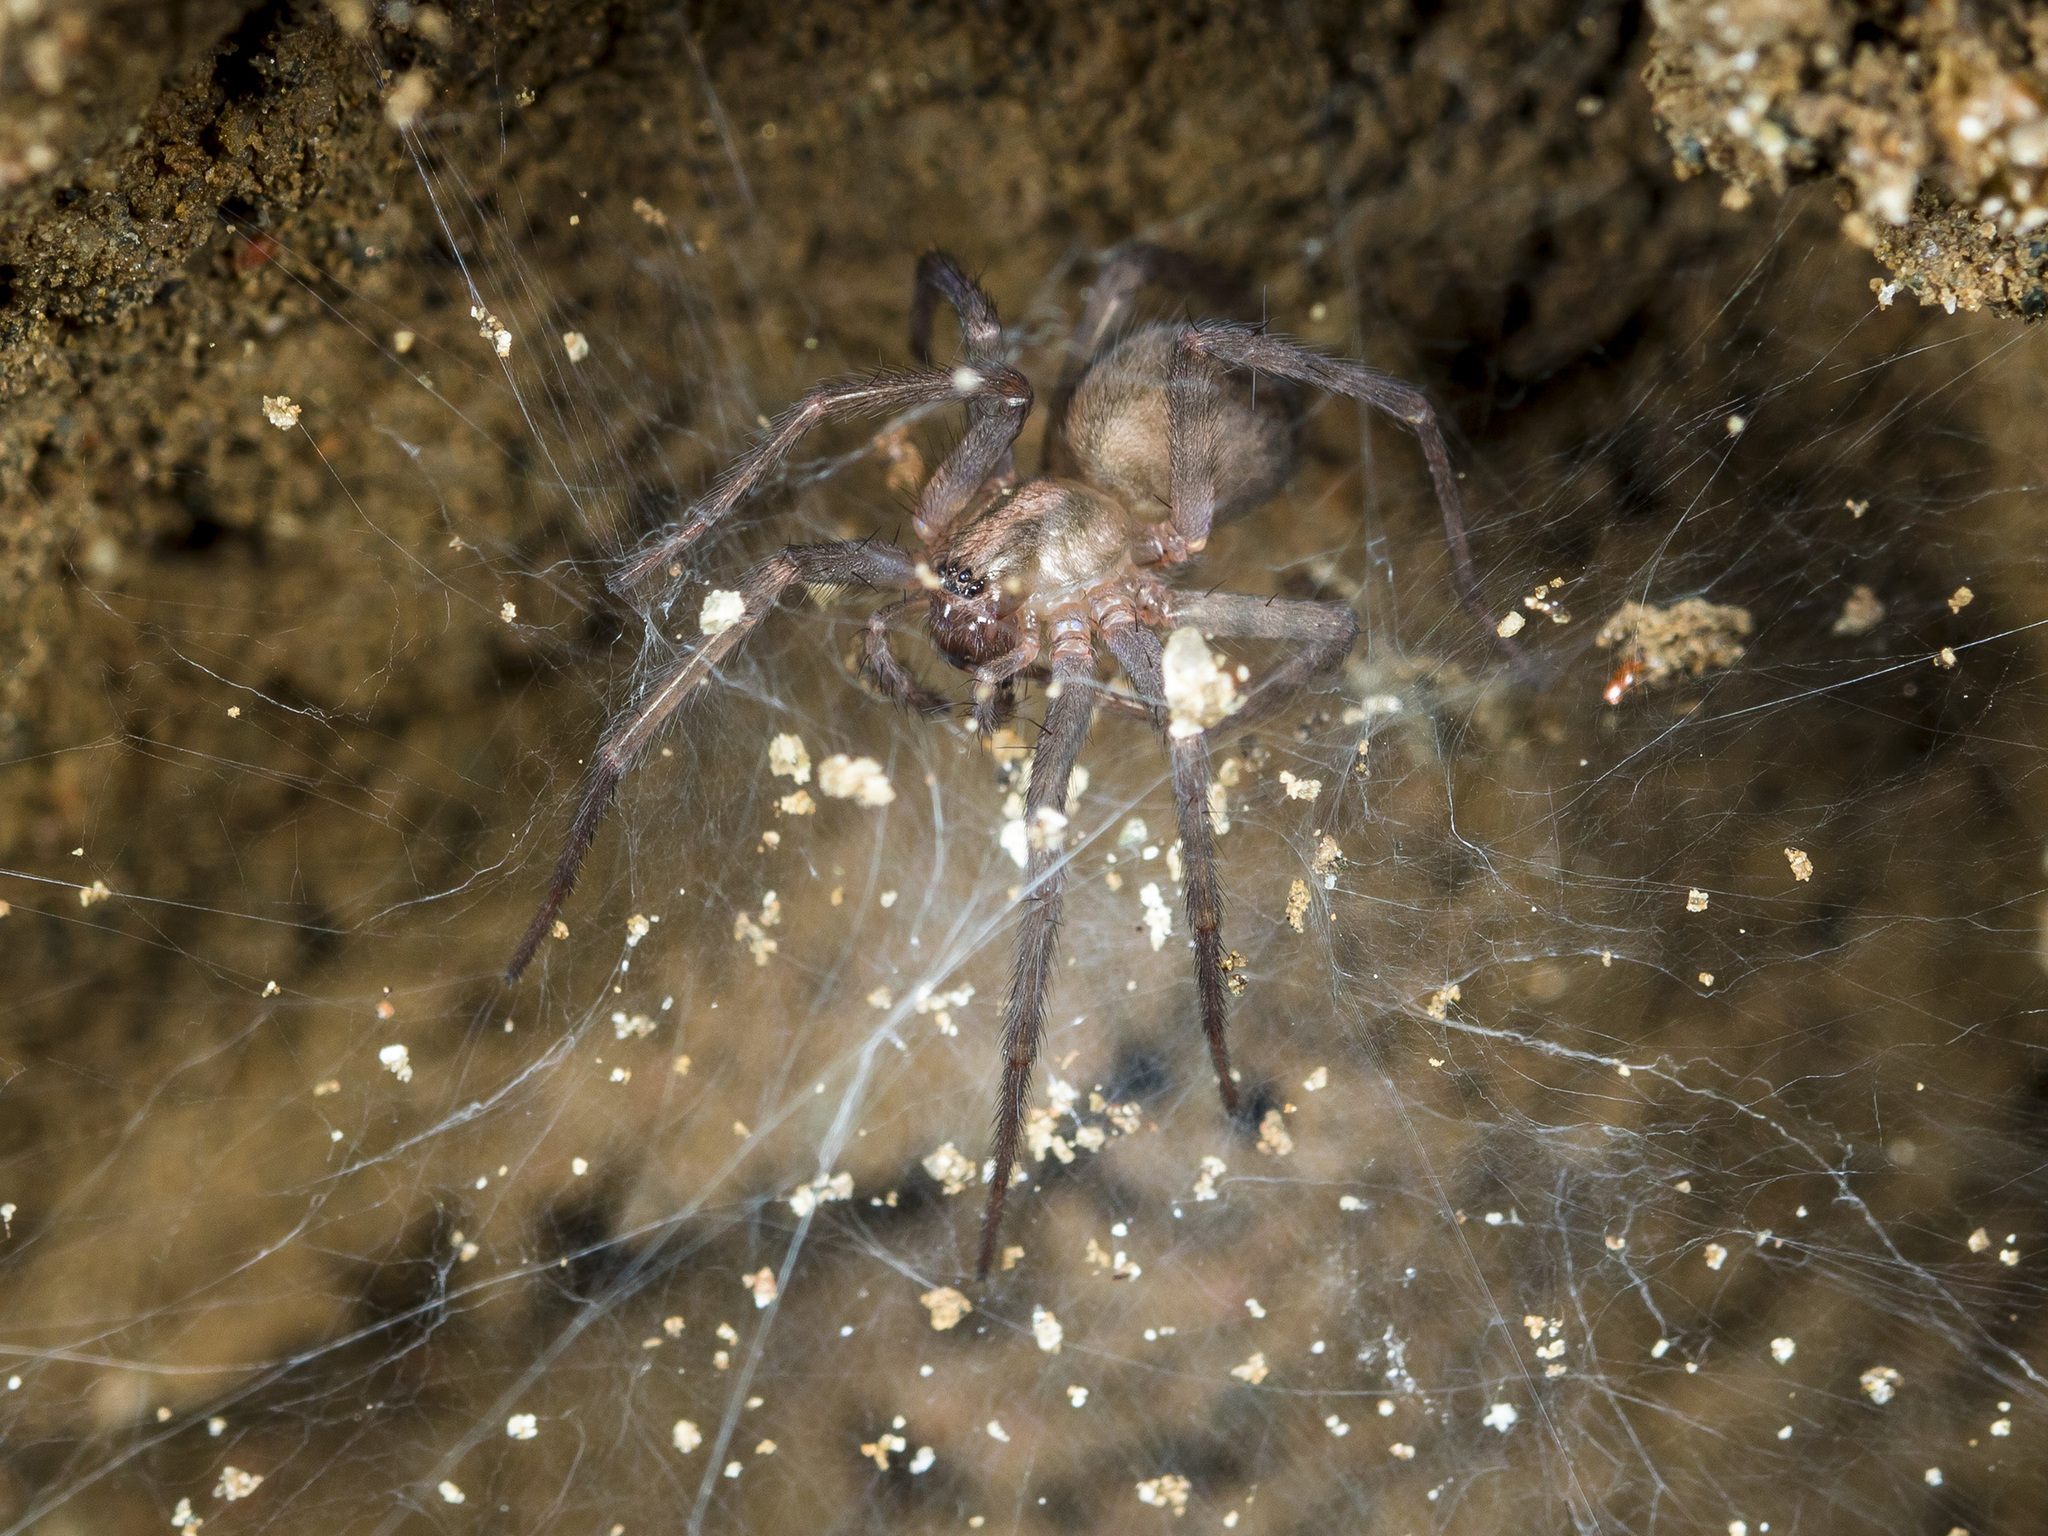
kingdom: Animalia
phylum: Arthropoda
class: Arachnida
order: Araneae
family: Agelenidae
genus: Tegenaria
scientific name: Tegenaria domestica
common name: Barn funnel weaver
